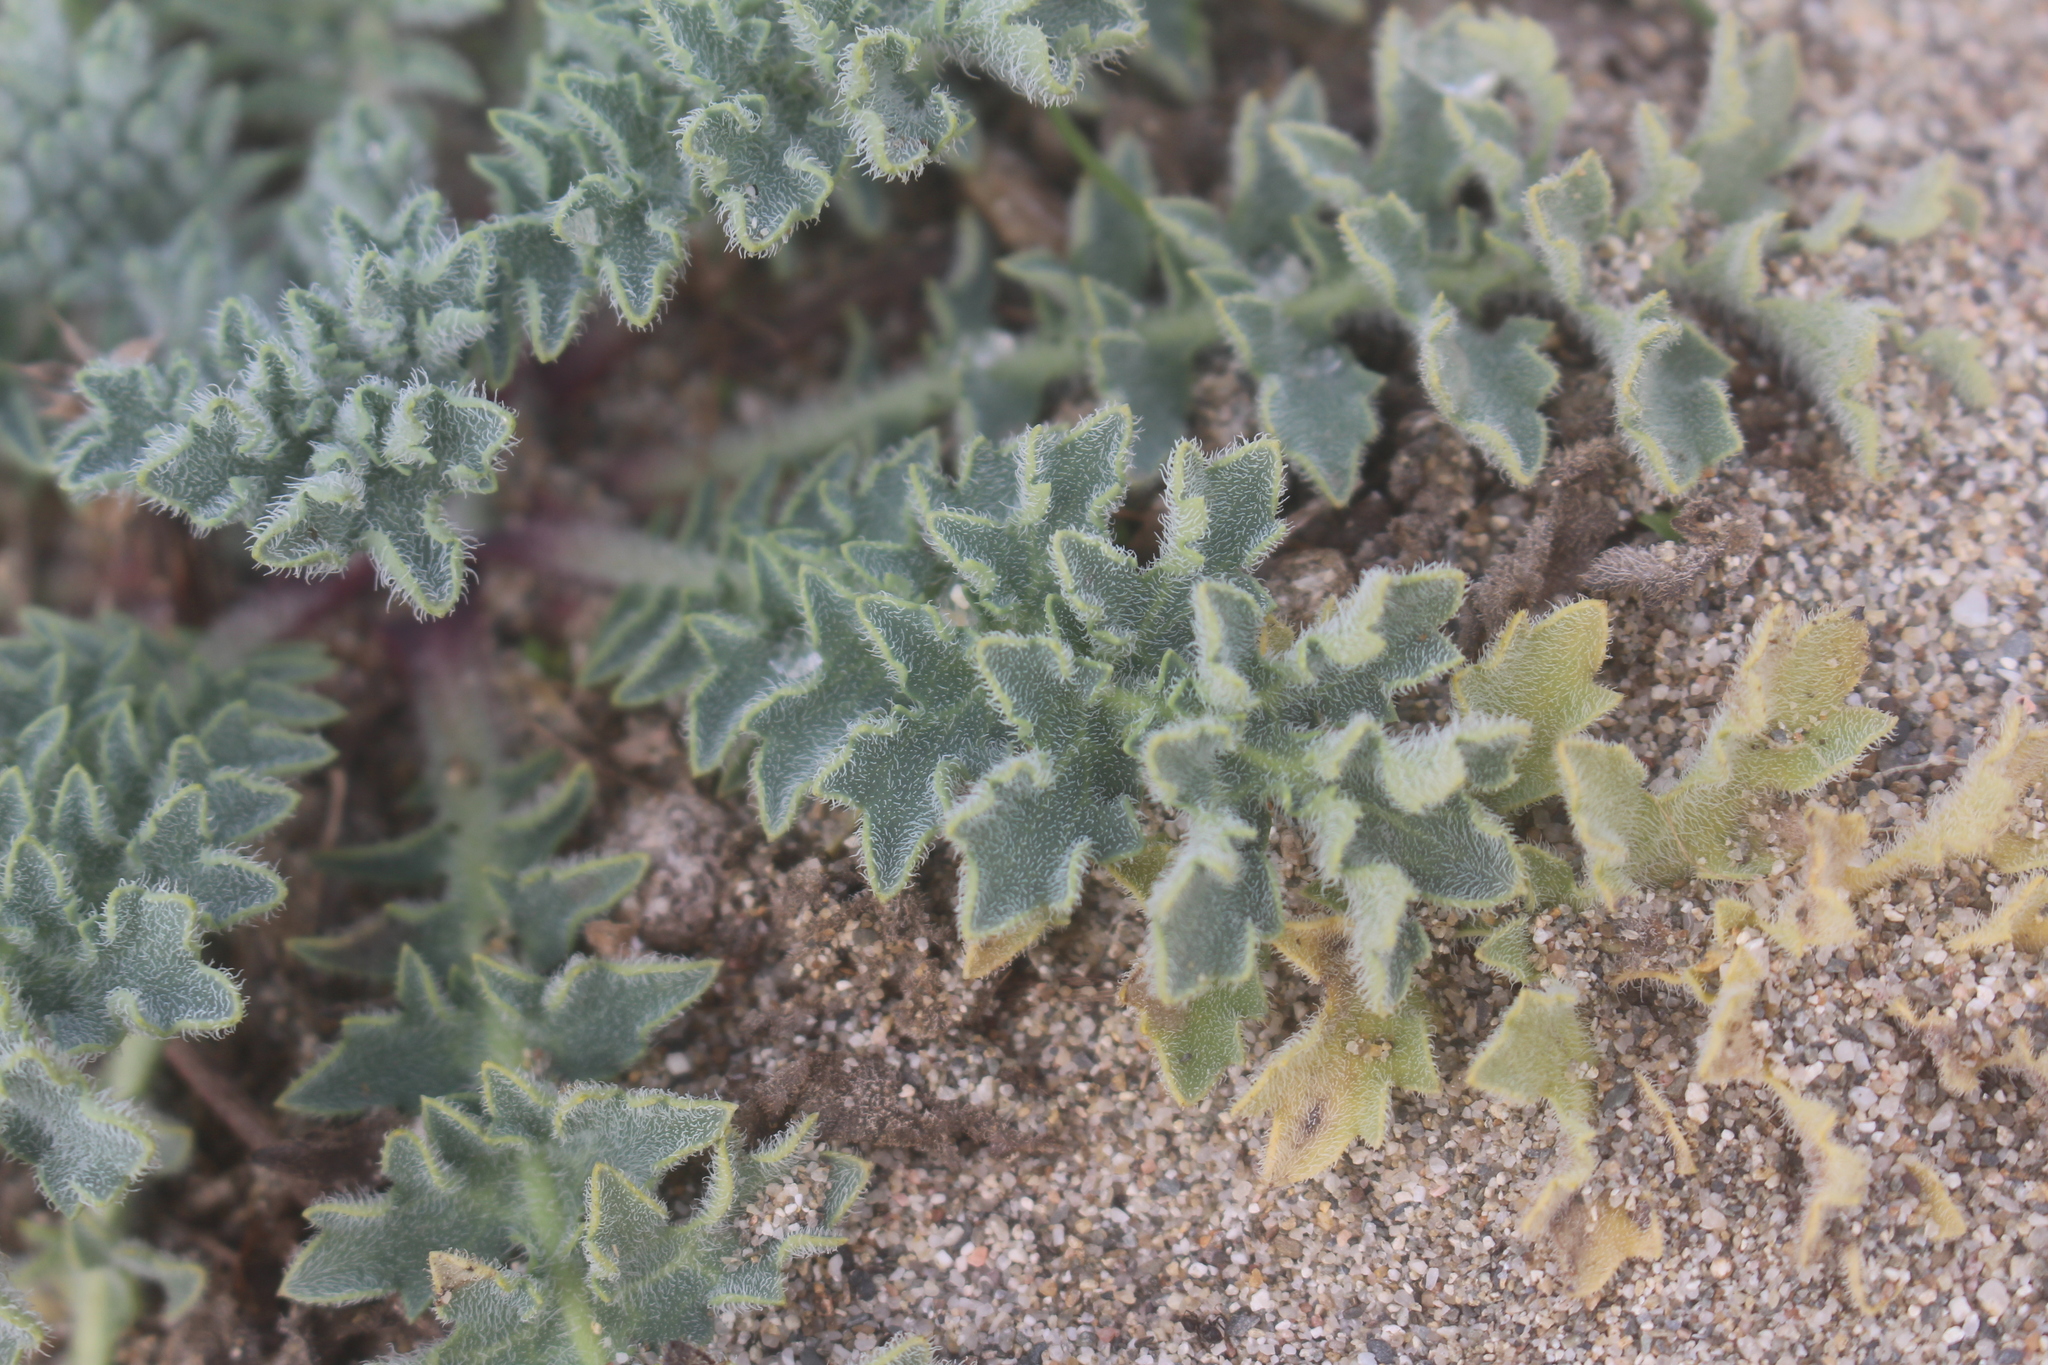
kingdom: Plantae
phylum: Tracheophyta
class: Magnoliopsida
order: Ranunculales
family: Papaveraceae
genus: Glaucium
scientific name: Glaucium flavum
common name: Yellow horned-poppy
